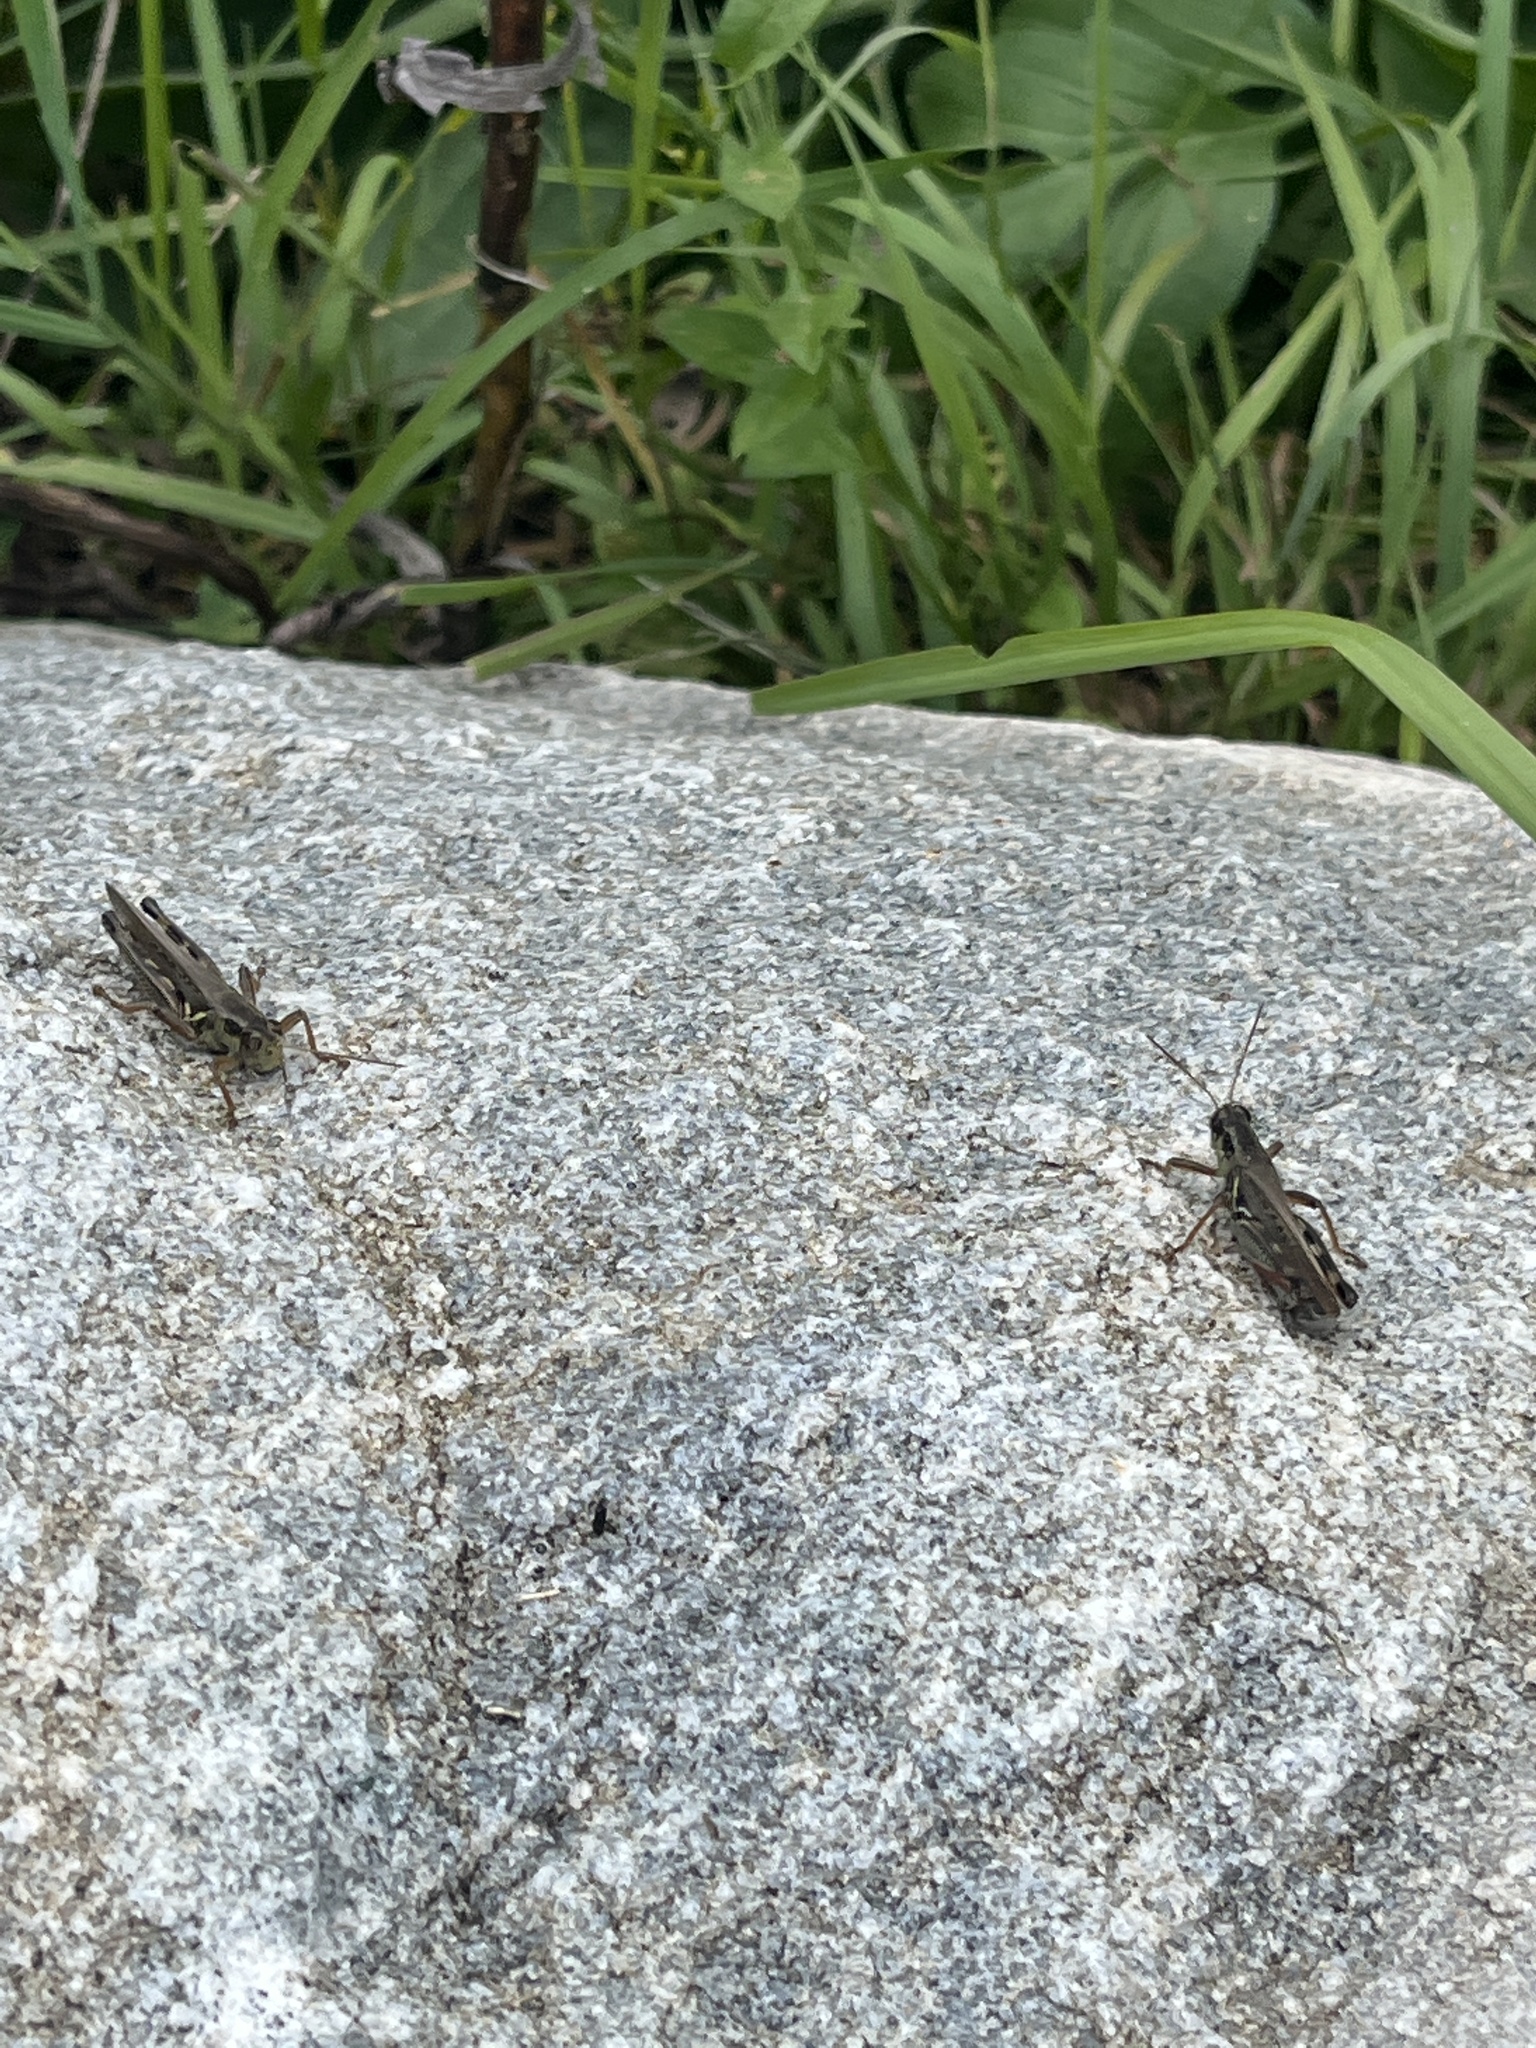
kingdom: Animalia
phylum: Arthropoda
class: Insecta
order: Orthoptera
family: Acrididae
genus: Melanoplus
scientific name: Melanoplus femurrubrum
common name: Red-legged grasshopper
